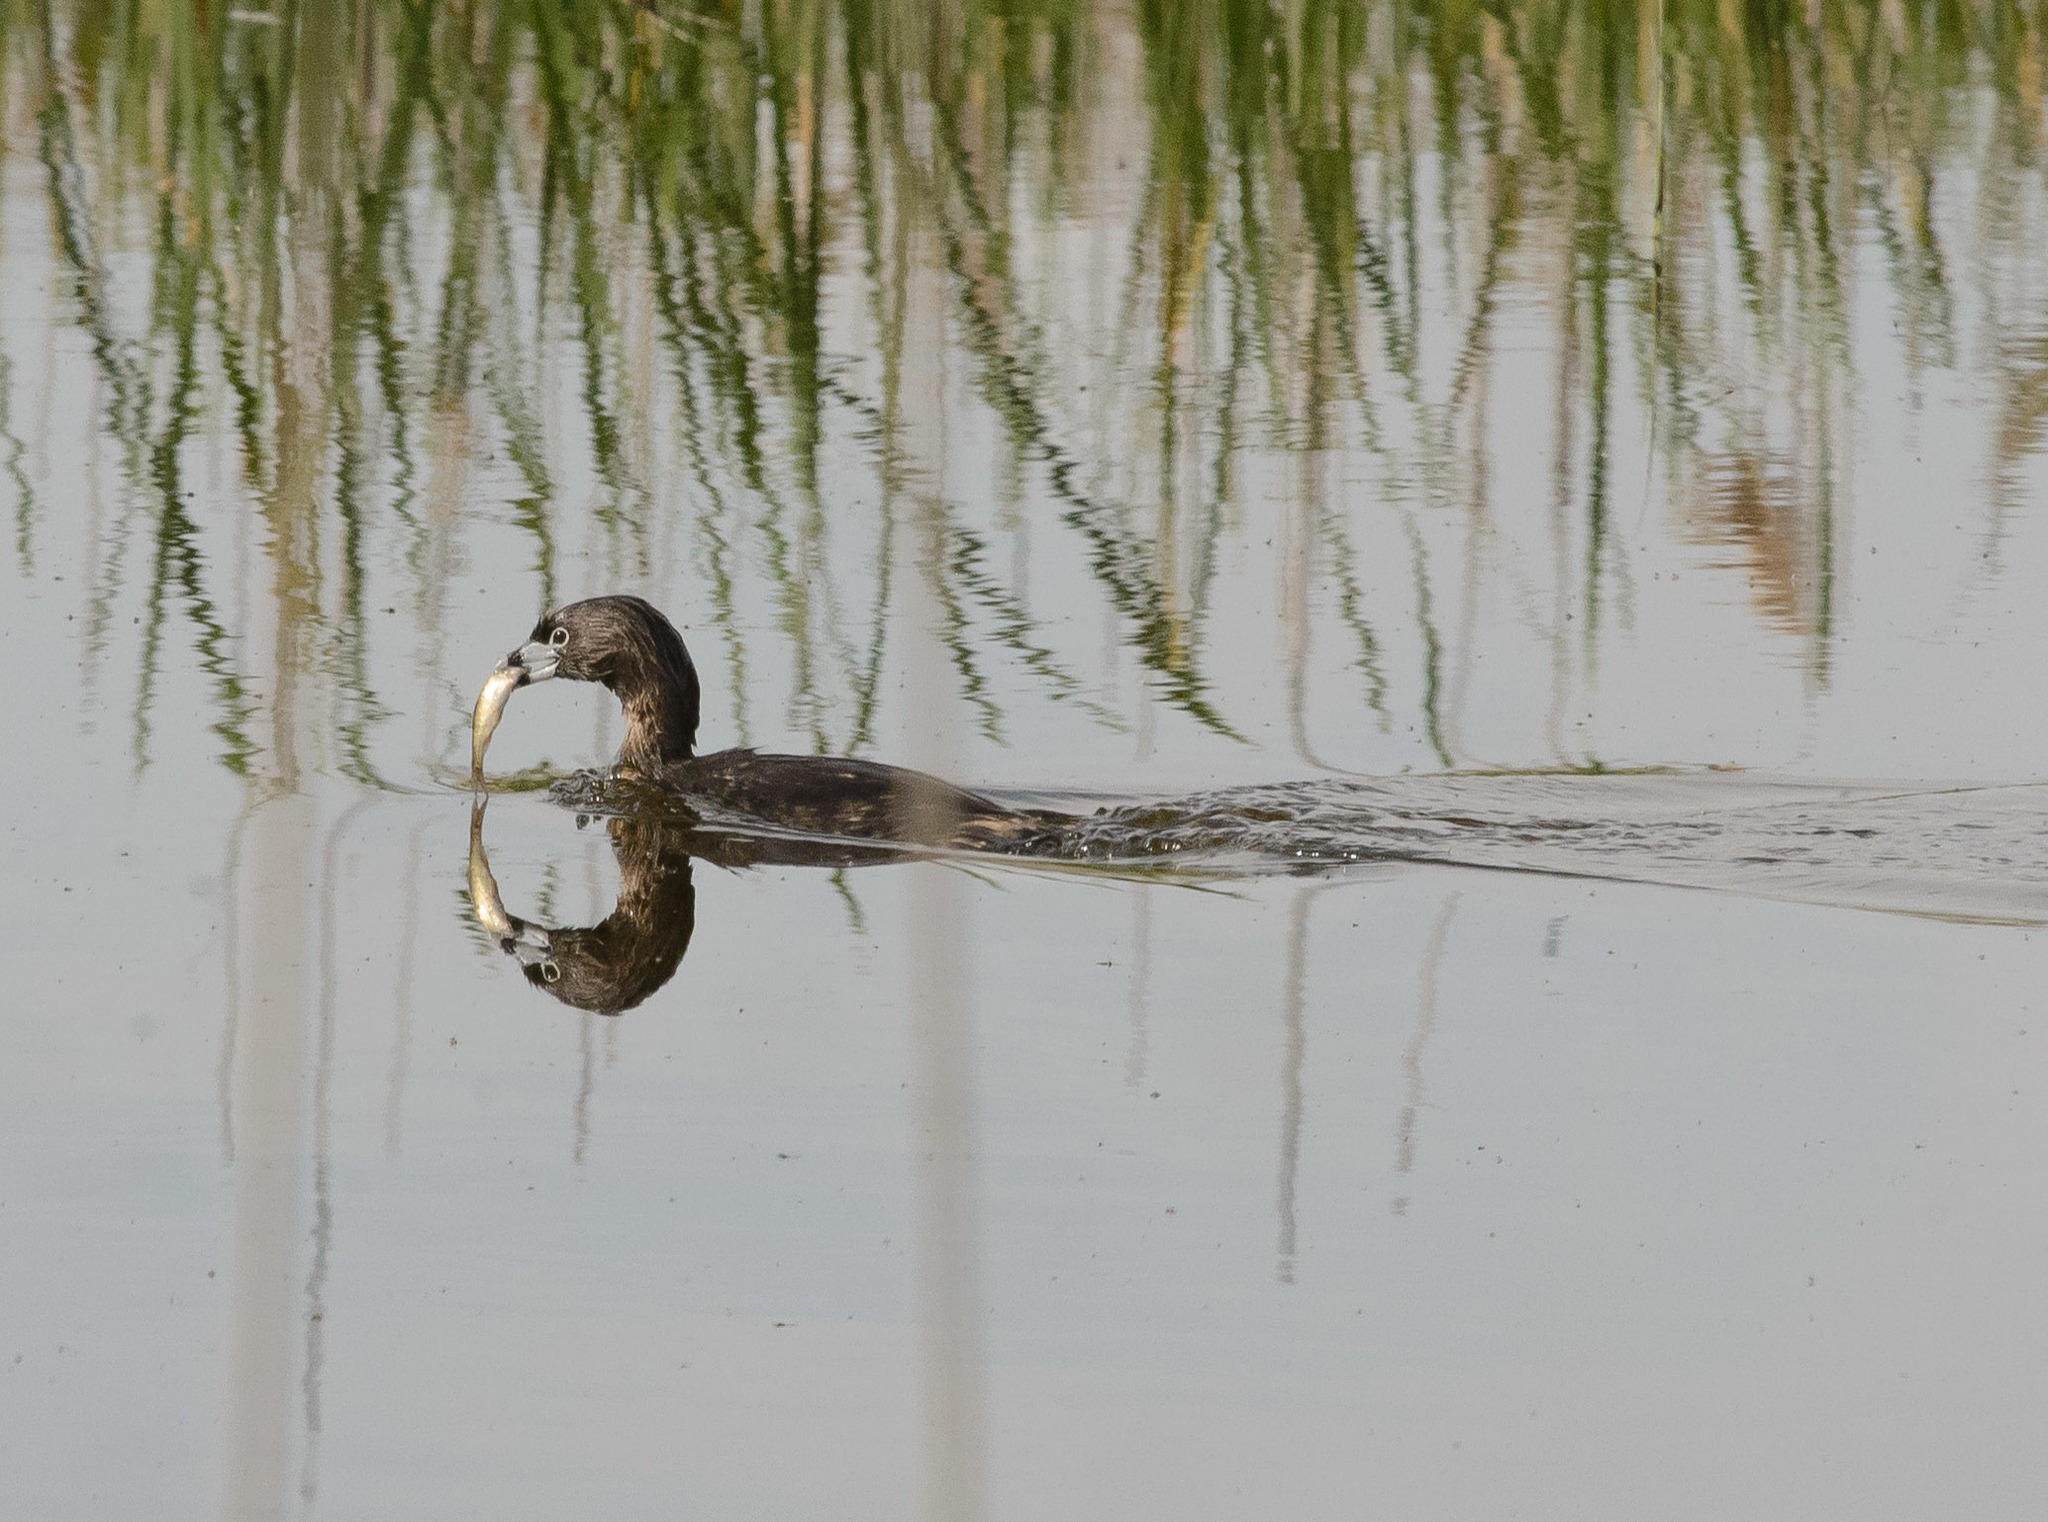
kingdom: Animalia
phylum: Chordata
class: Aves
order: Podicipediformes
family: Podicipedidae
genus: Podilymbus
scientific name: Podilymbus podiceps
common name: Pied-billed grebe
